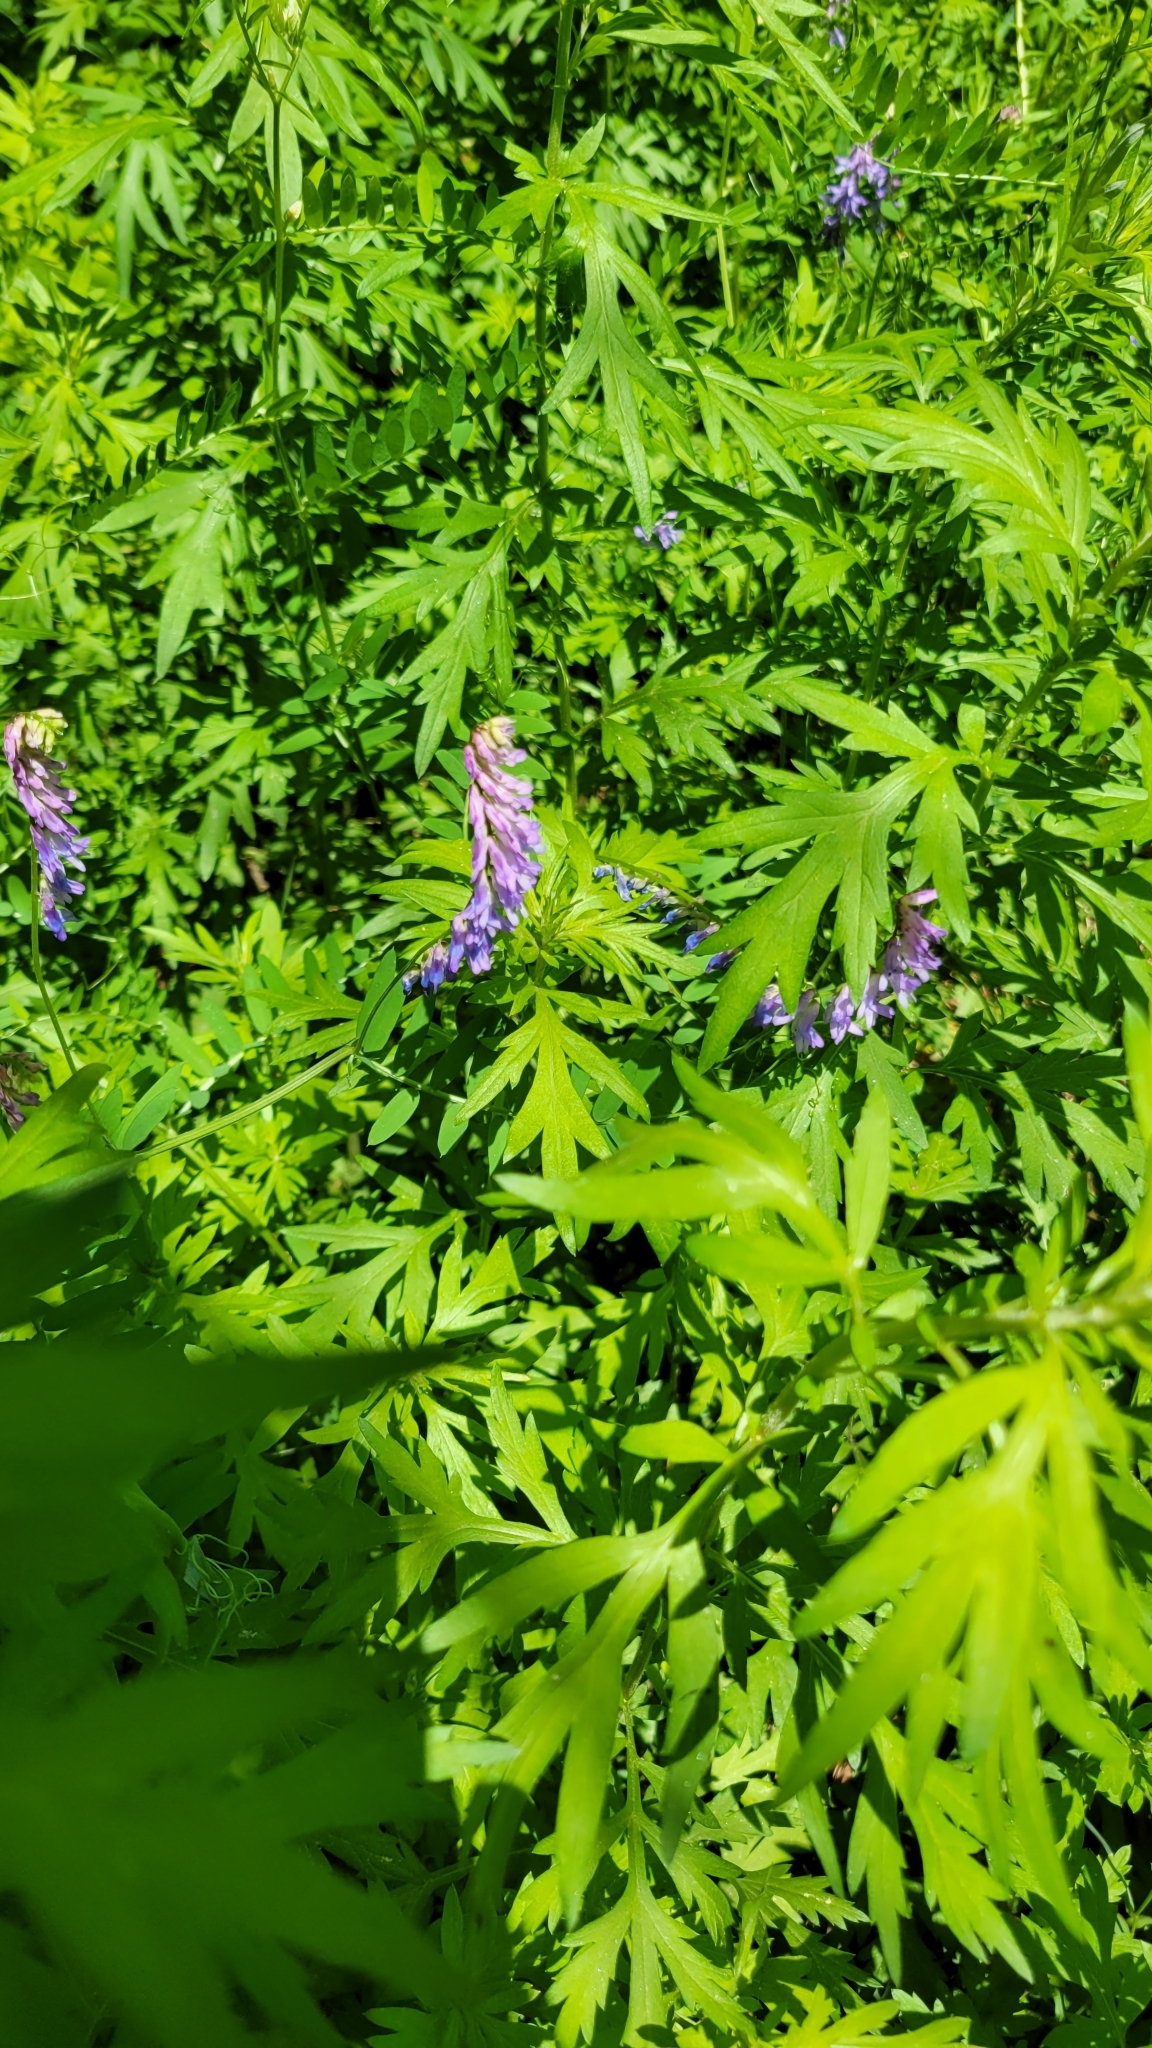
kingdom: Plantae
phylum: Tracheophyta
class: Magnoliopsida
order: Fabales
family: Fabaceae
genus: Vicia
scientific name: Vicia cracca
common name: Bird vetch
